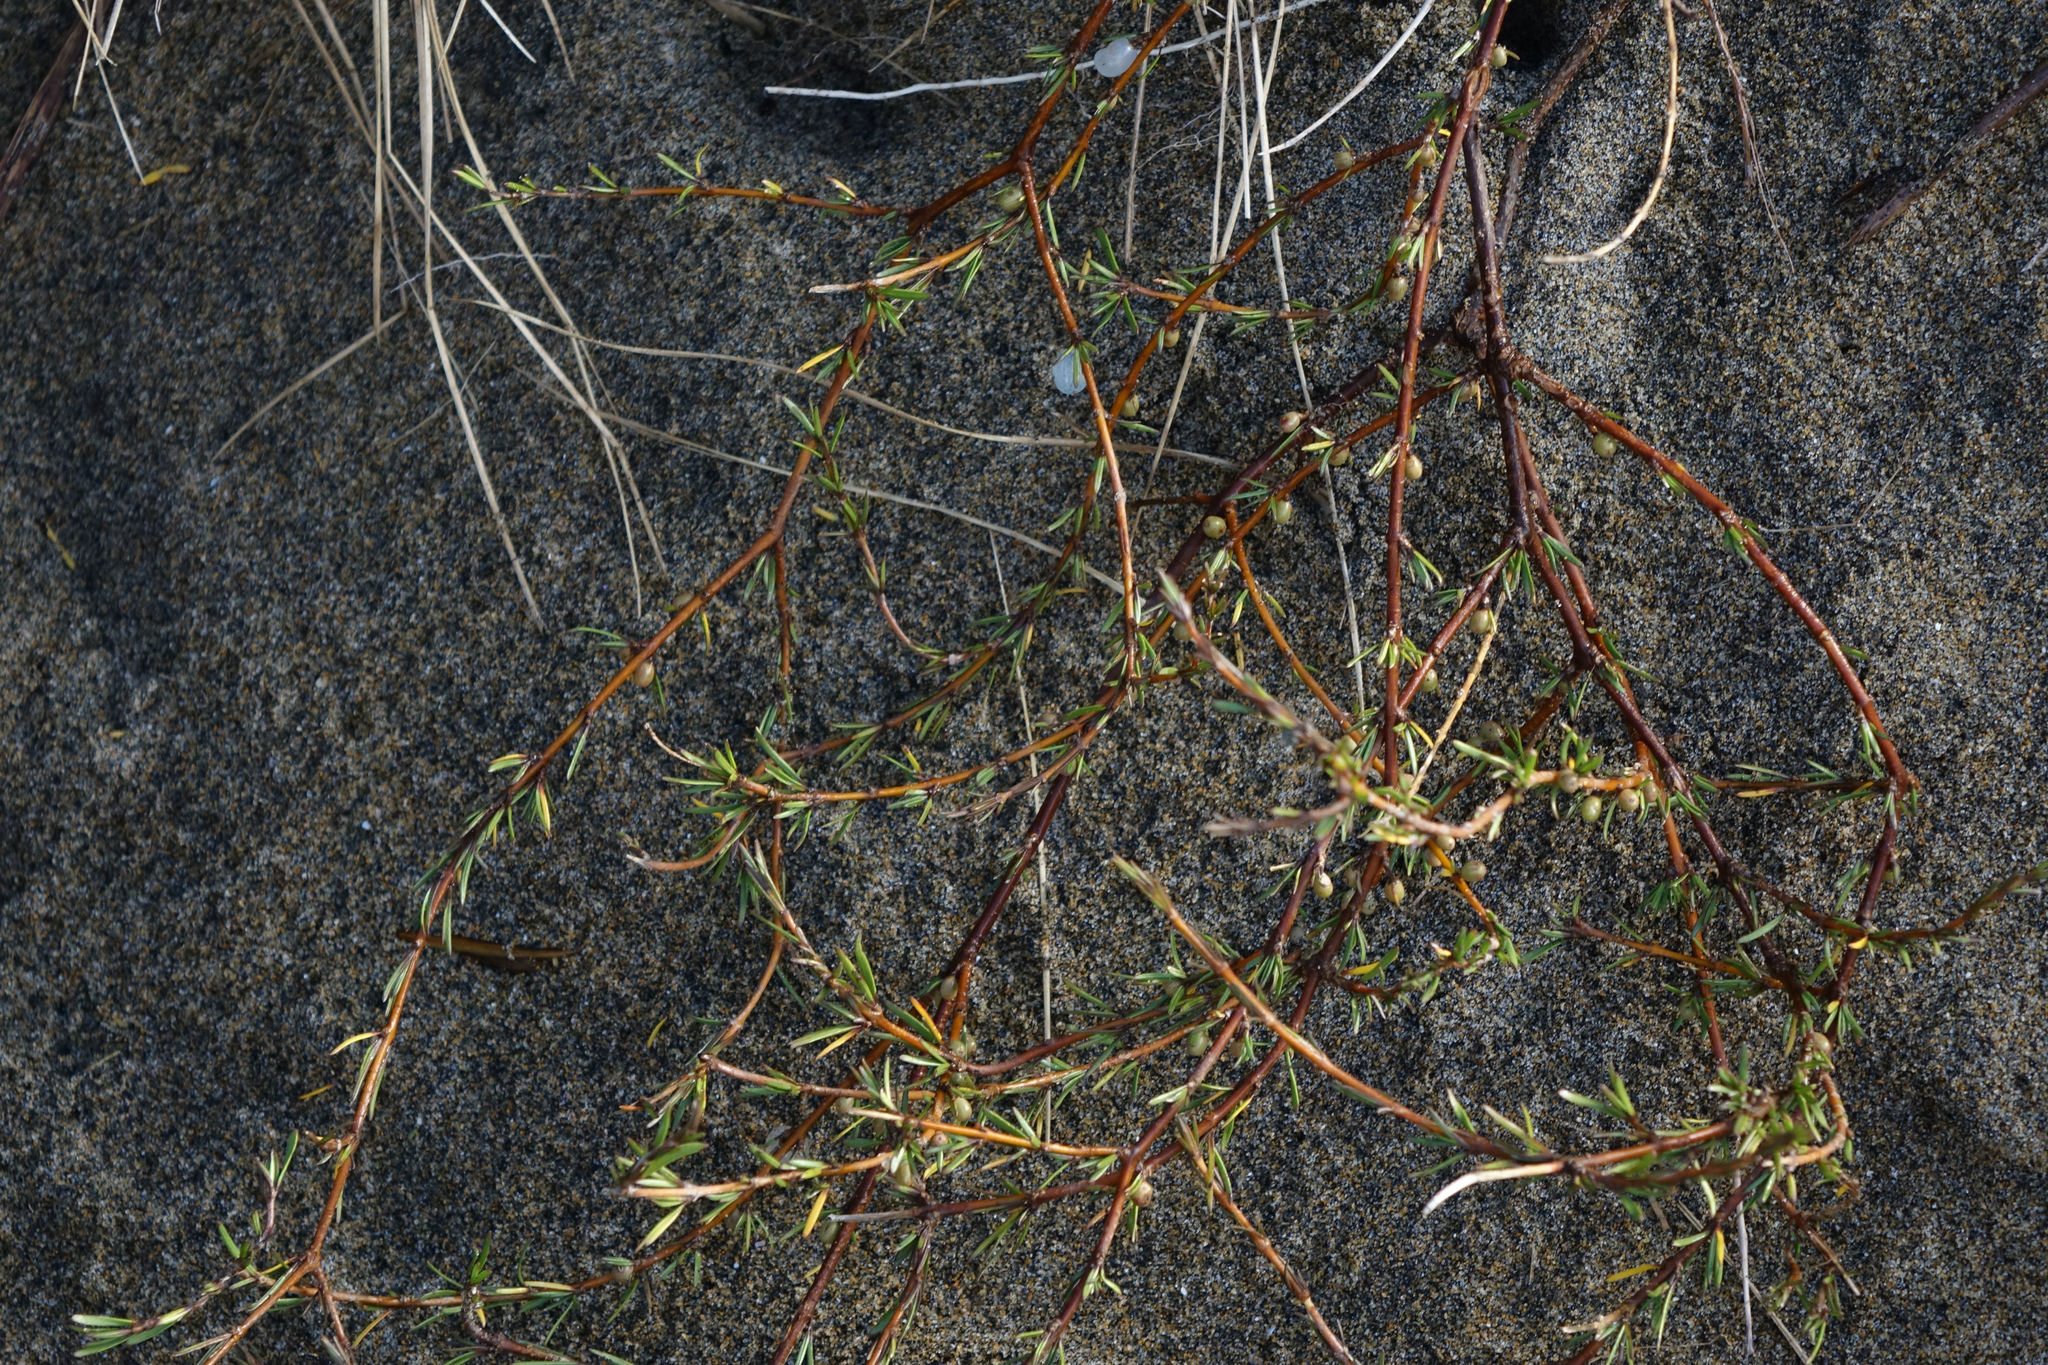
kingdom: Plantae
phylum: Tracheophyta
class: Magnoliopsida
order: Gentianales
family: Rubiaceae
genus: Coprosma
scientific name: Coprosma acerosa
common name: Sand coprosma
